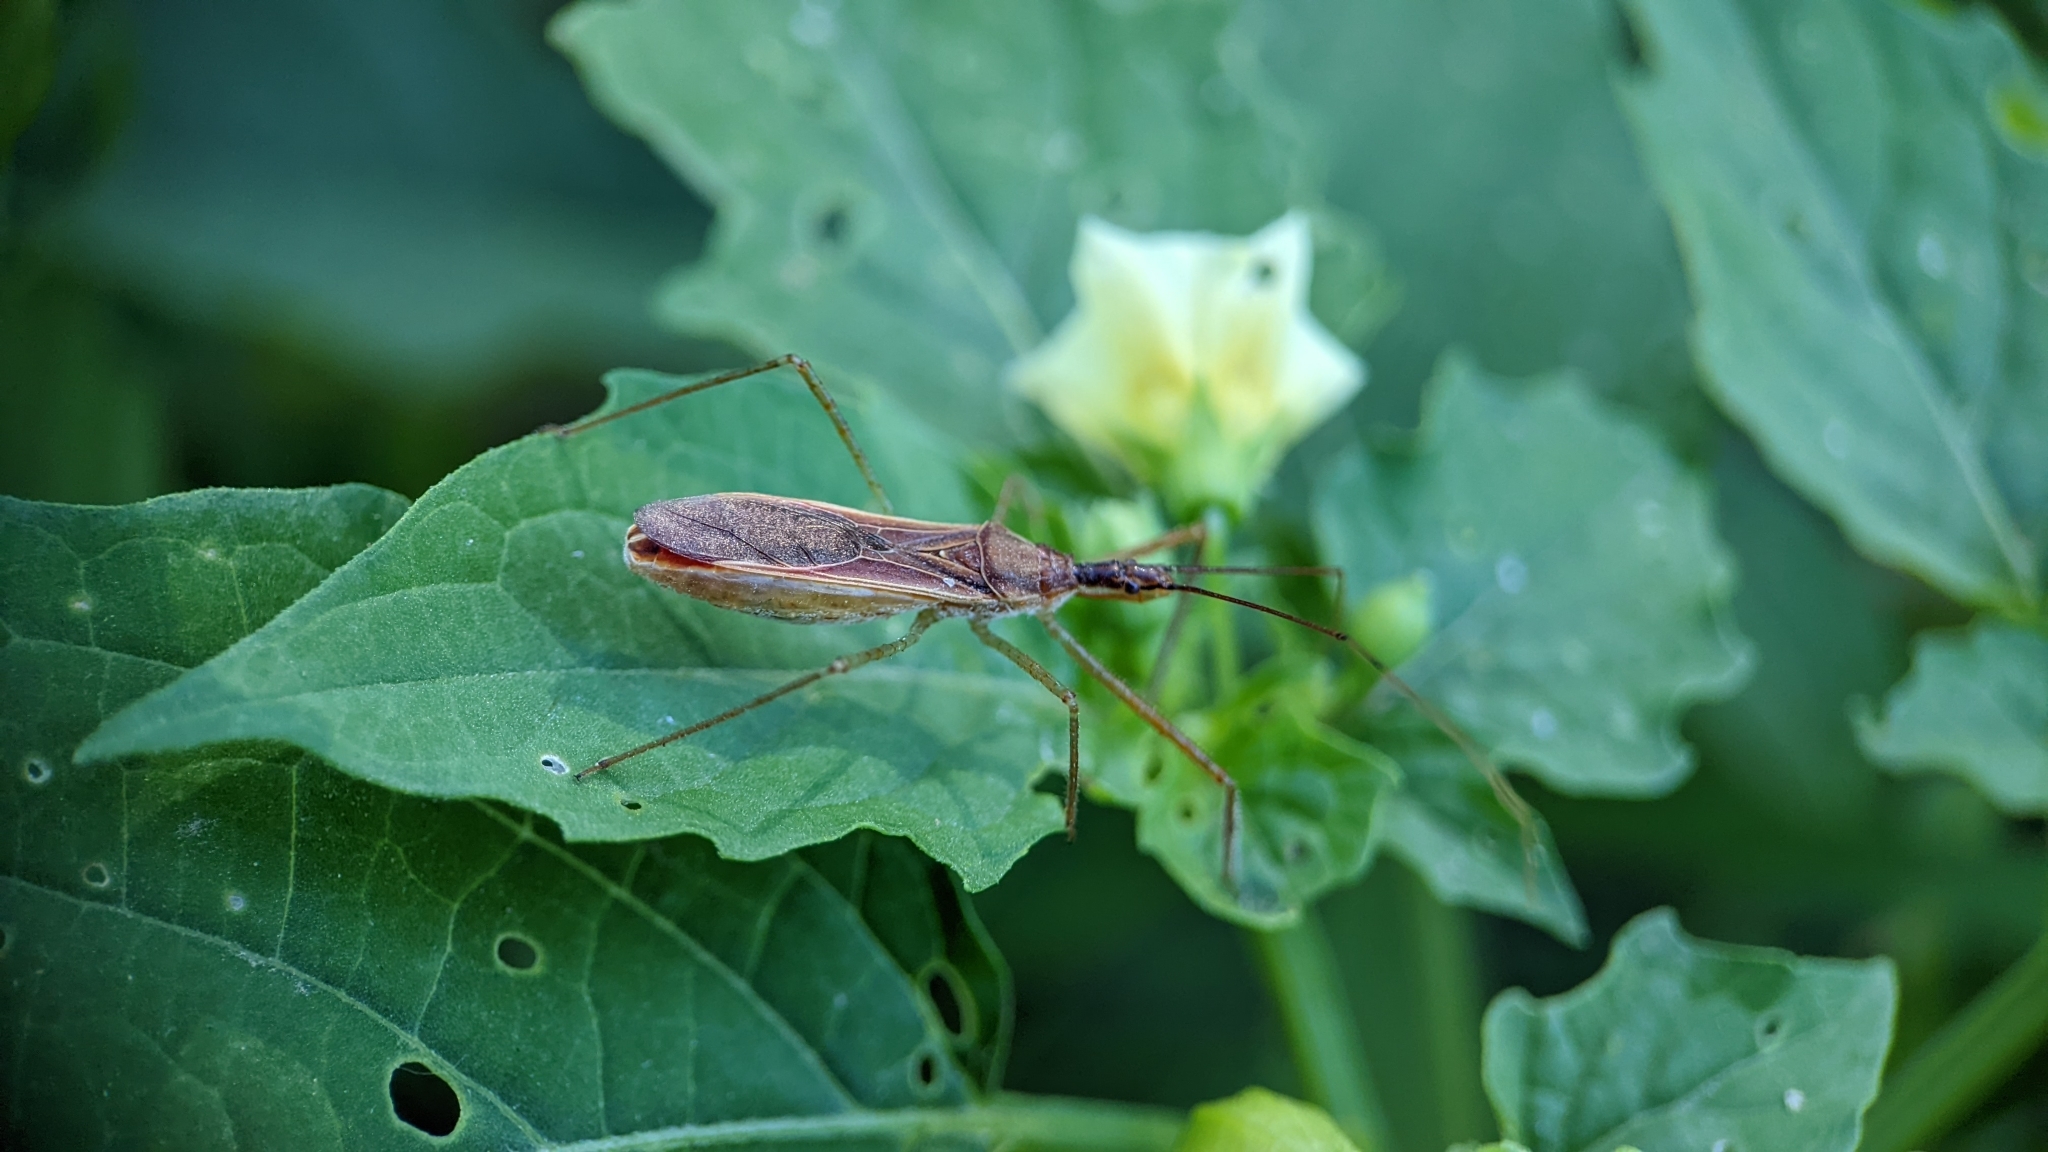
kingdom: Animalia
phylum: Arthropoda
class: Insecta
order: Hemiptera
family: Reduviidae
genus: Zelus
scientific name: Zelus cervicalis
